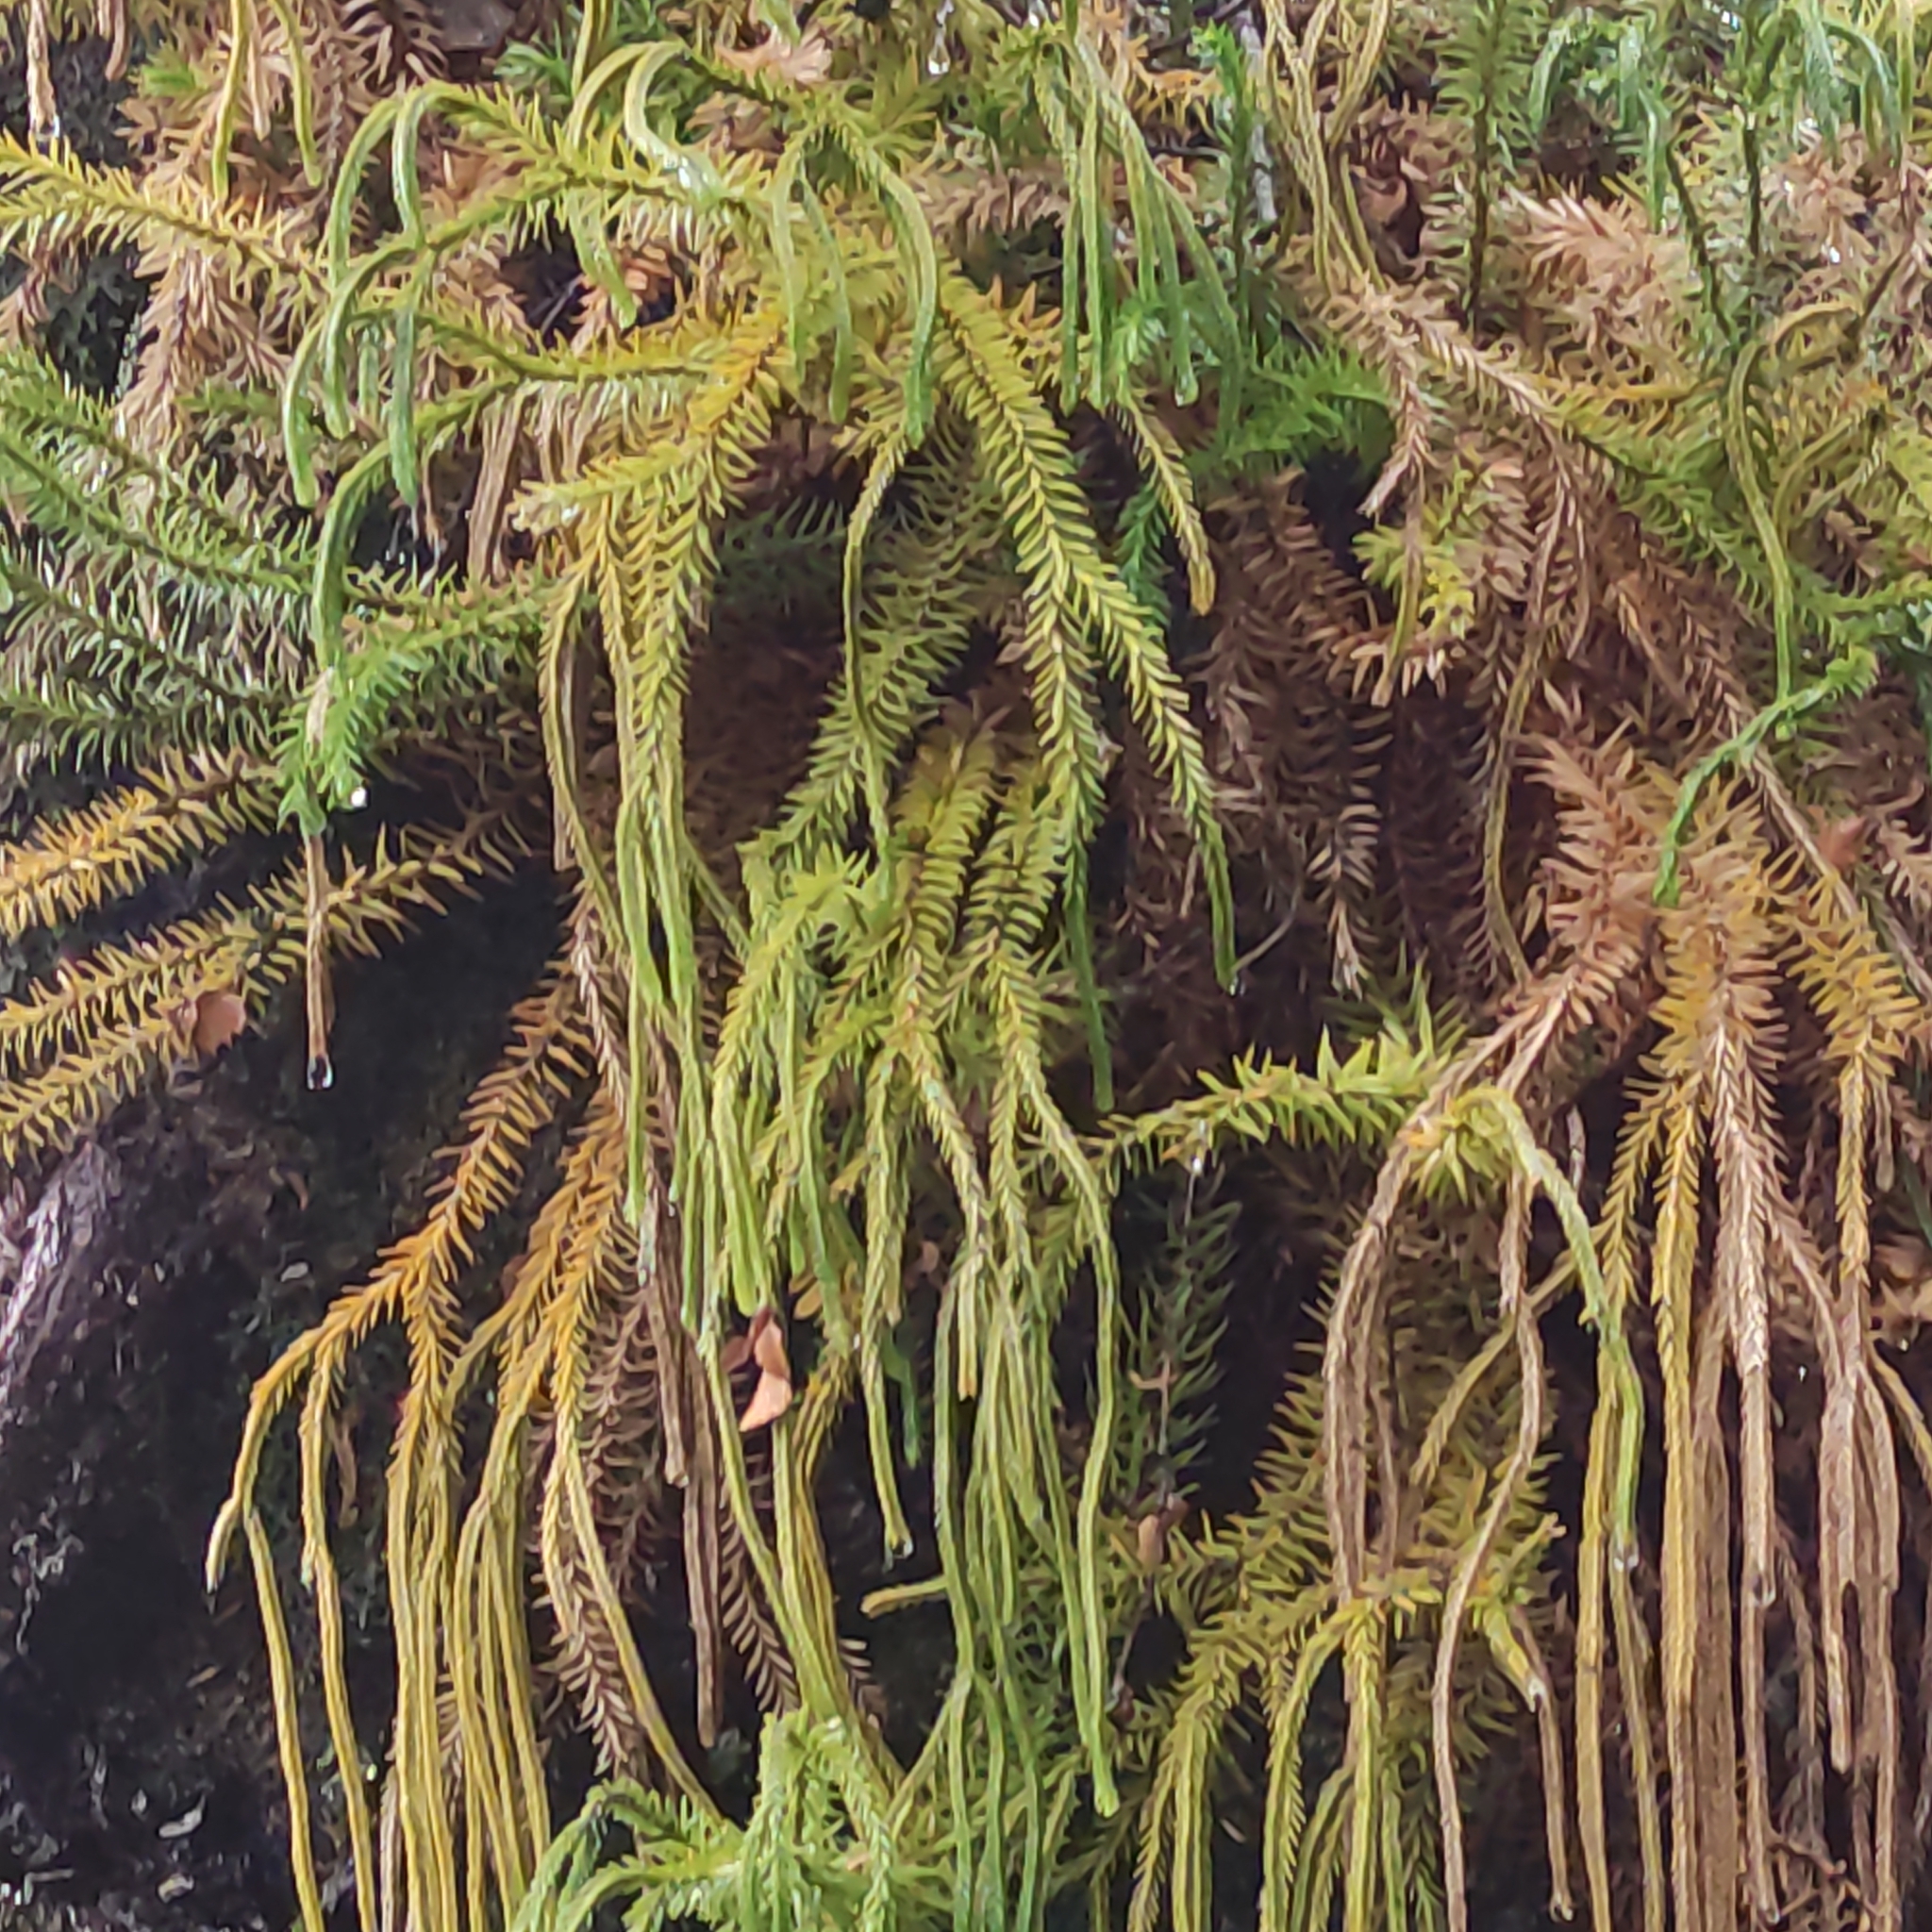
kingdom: Plantae
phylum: Tracheophyta
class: Lycopodiopsida
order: Lycopodiales
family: Lycopodiaceae
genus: Phlegmariurus
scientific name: Phlegmariurus varius
